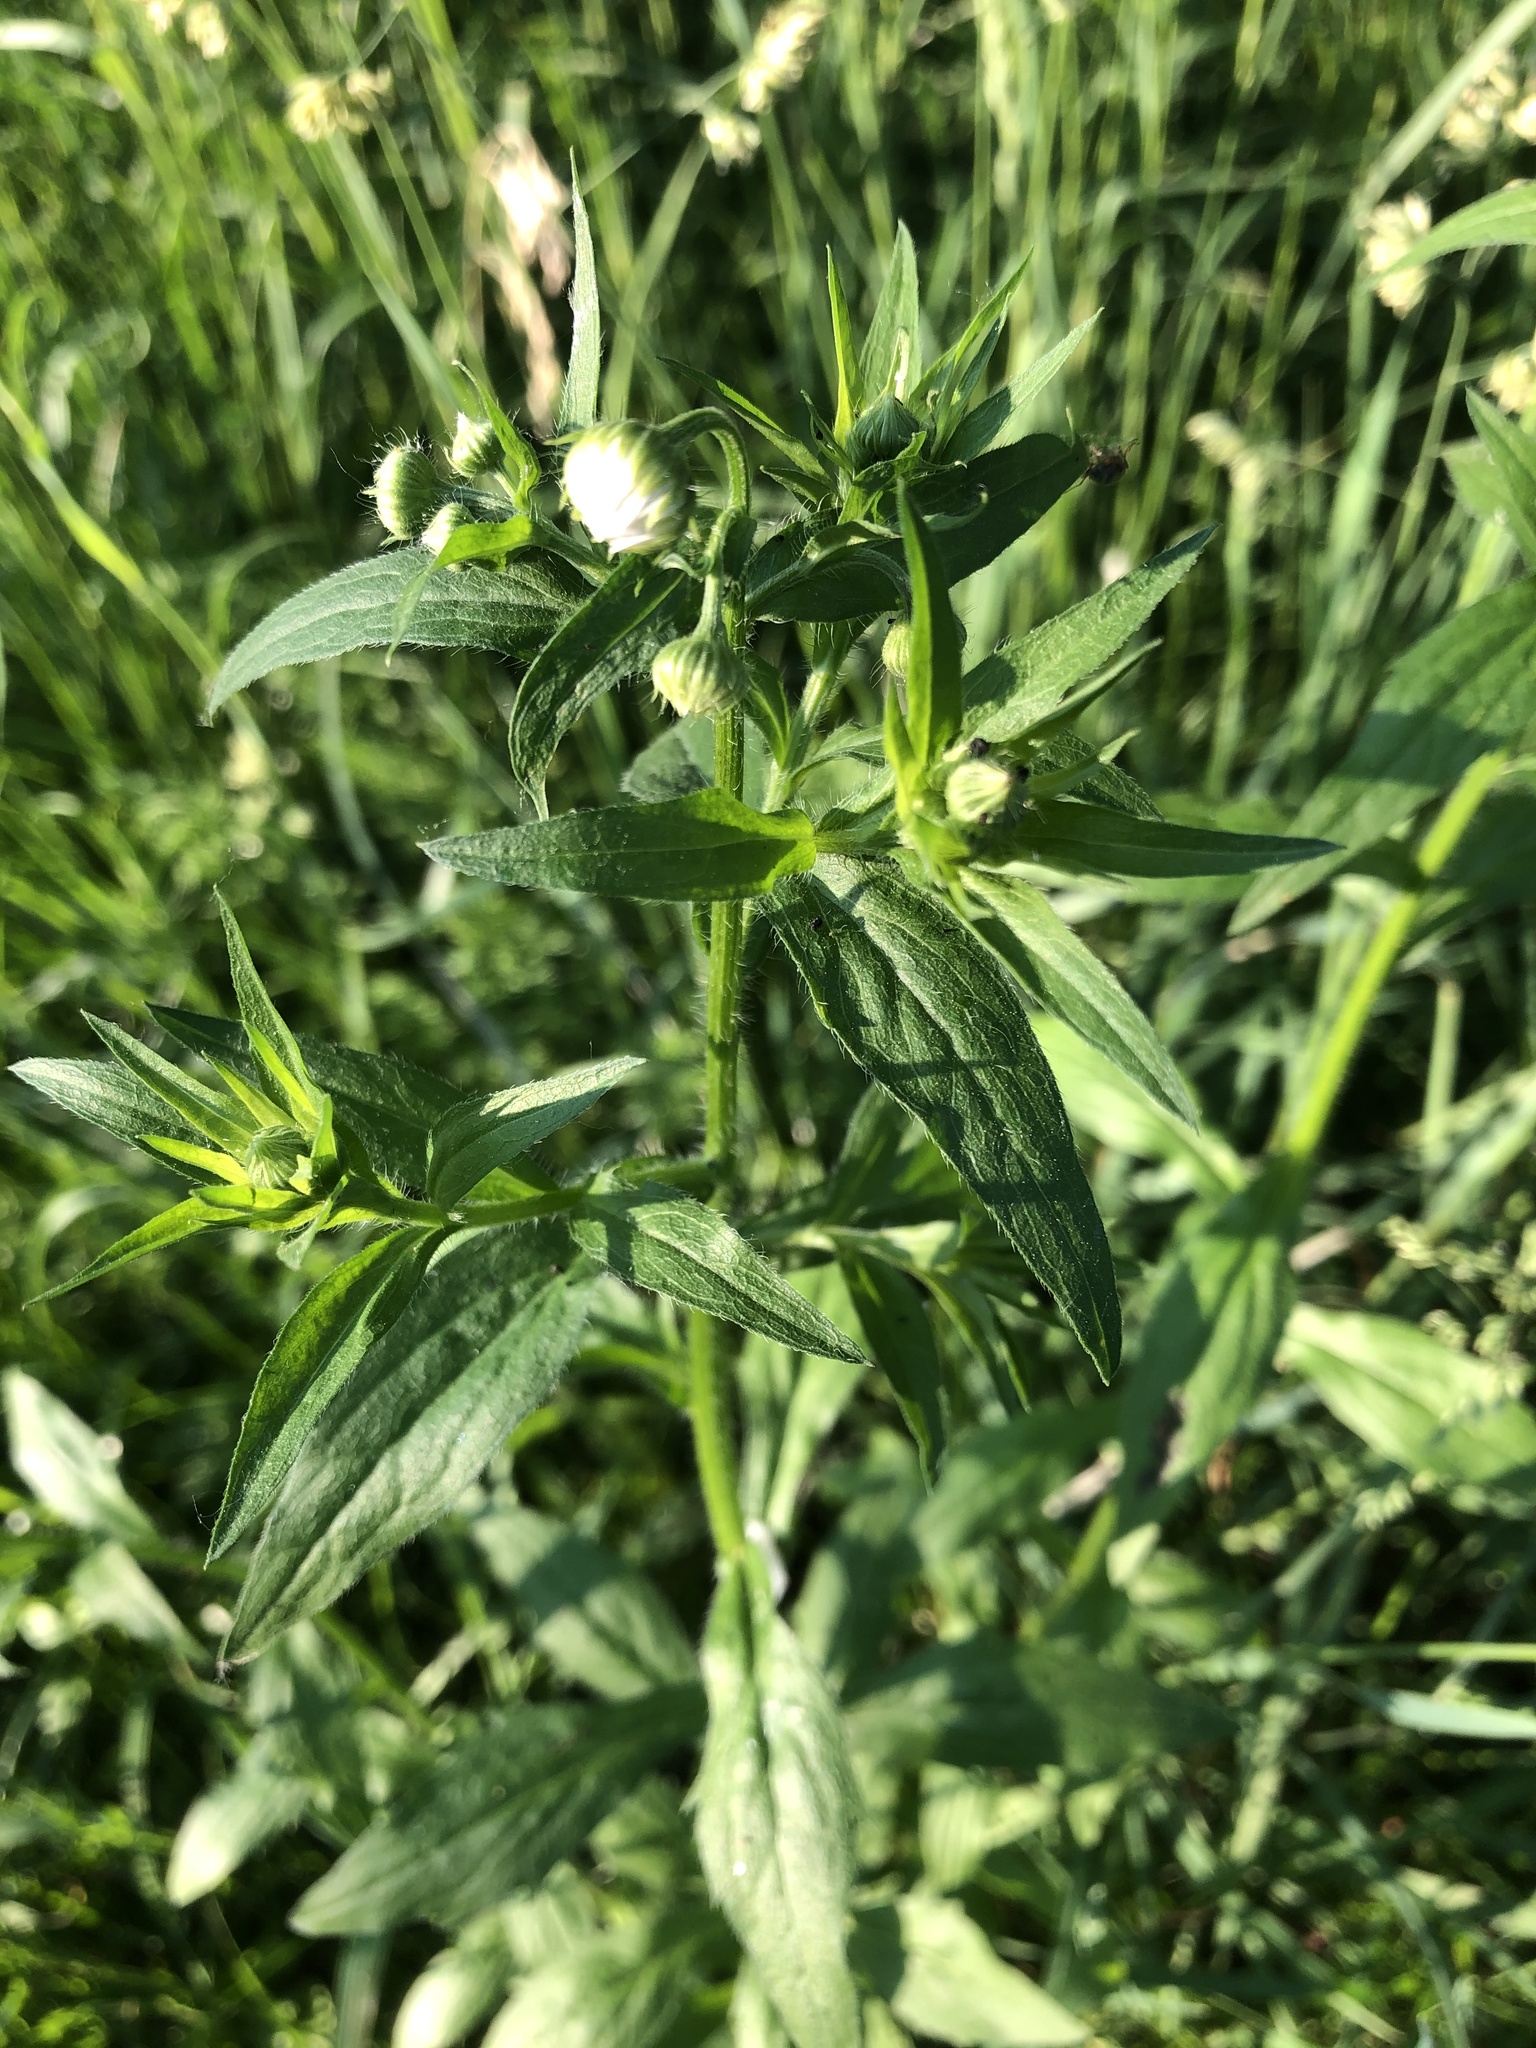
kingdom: Plantae
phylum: Tracheophyta
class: Magnoliopsida
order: Asterales
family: Asteraceae
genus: Erigeron
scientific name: Erigeron annuus
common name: Tall fleabane
